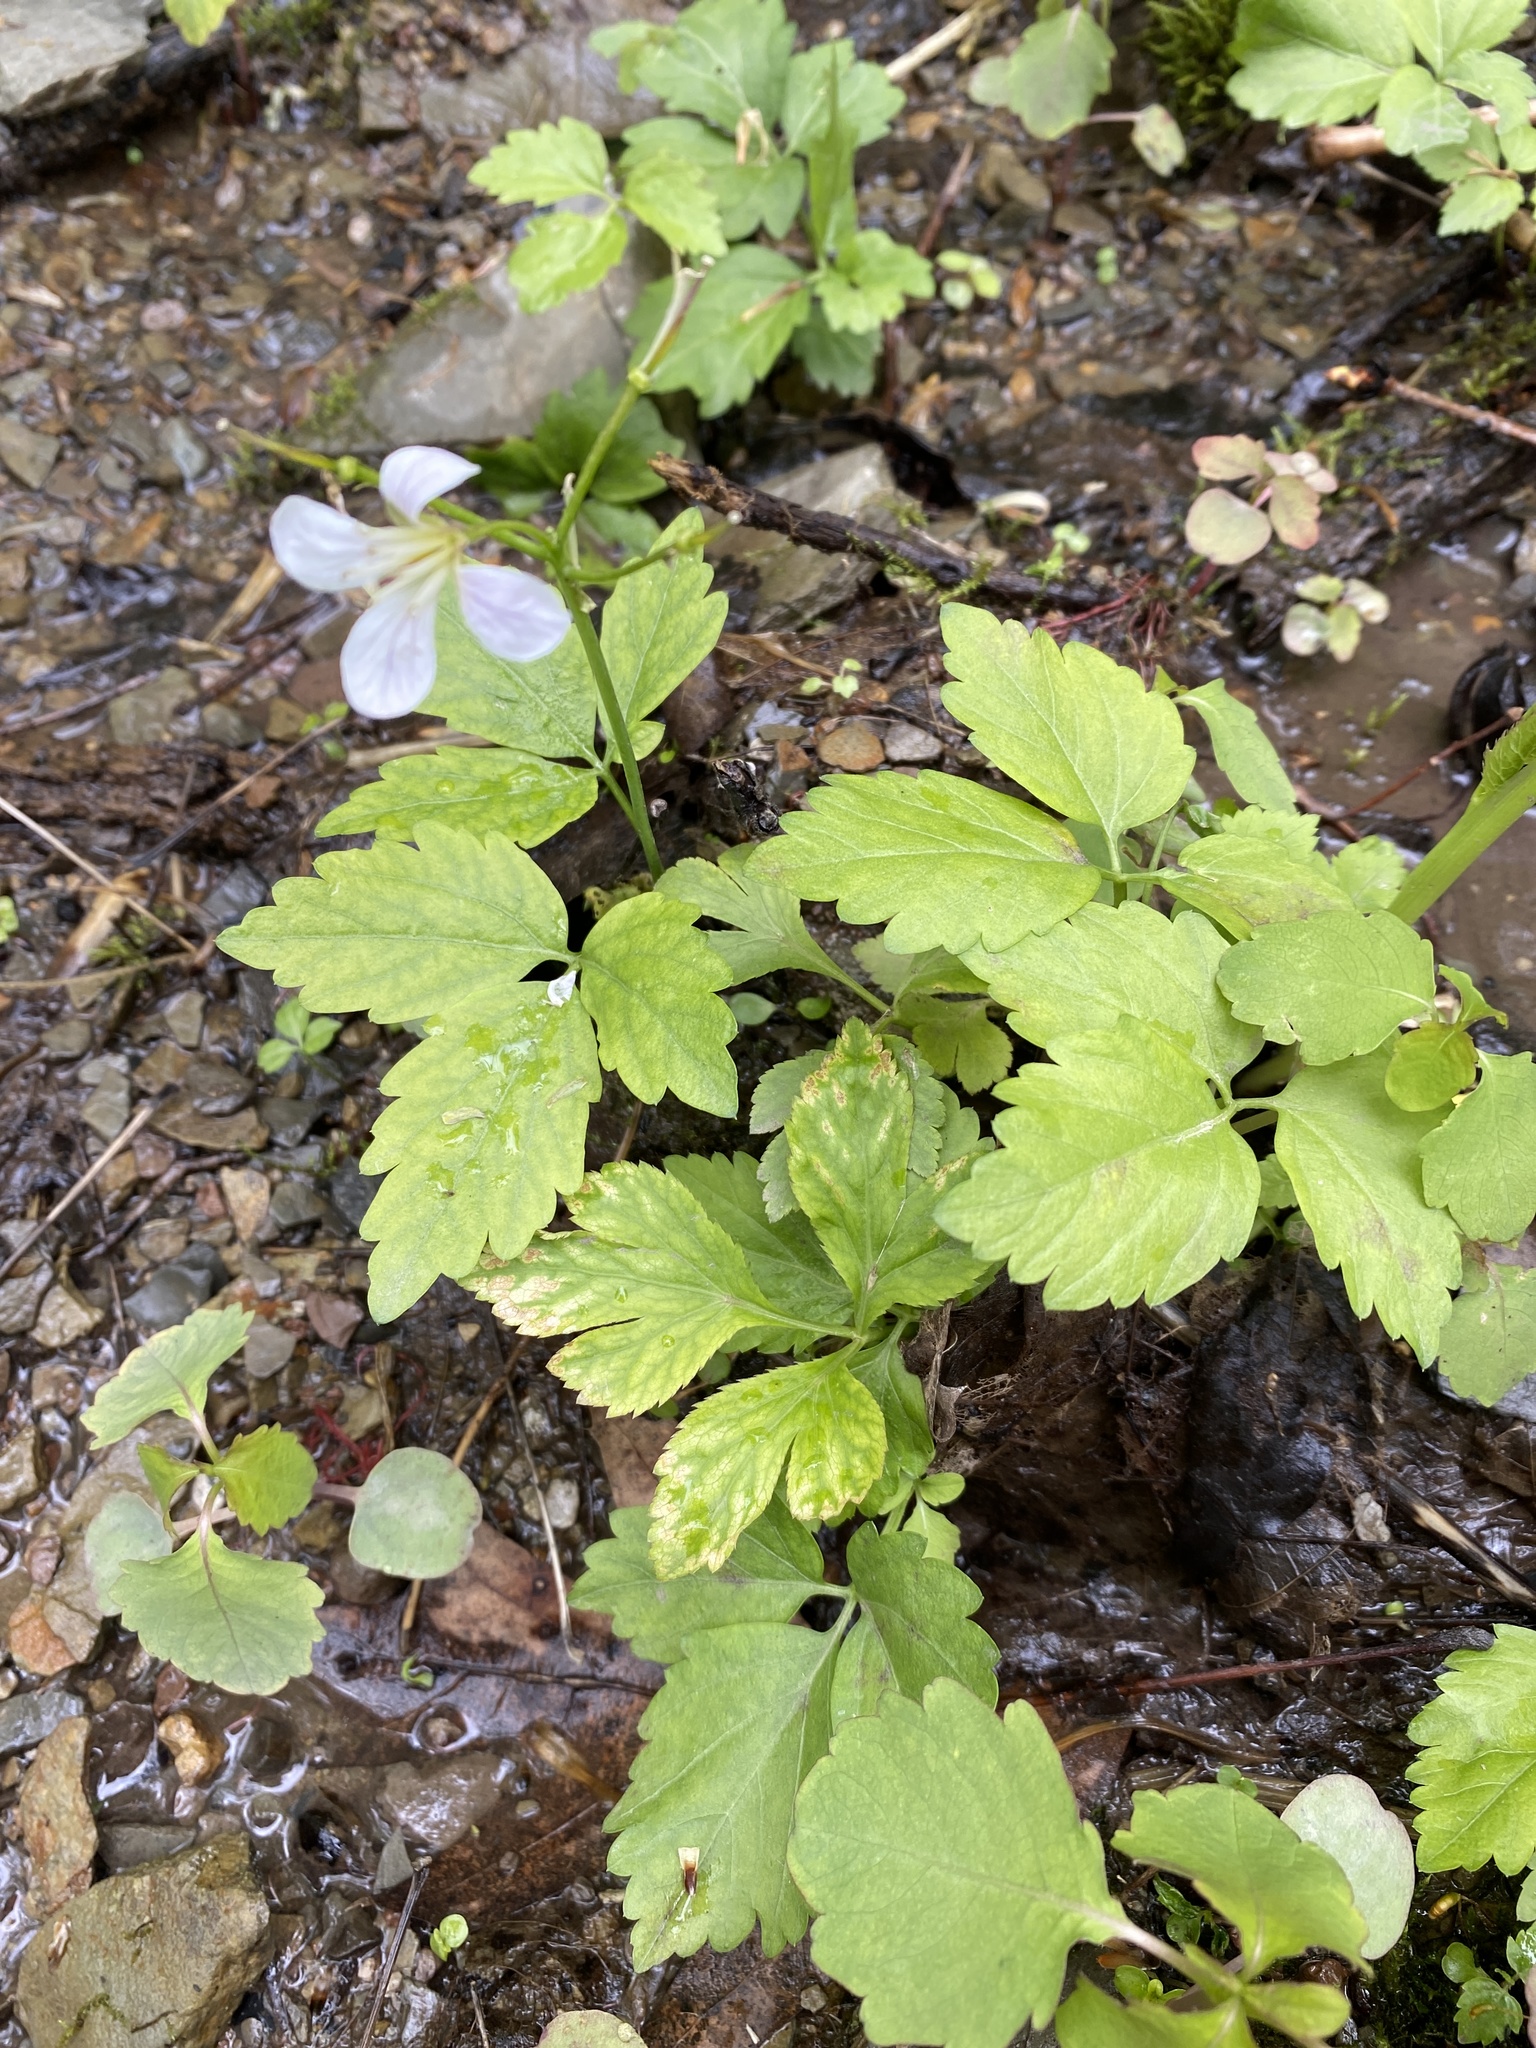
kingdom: Plantae
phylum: Tracheophyta
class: Magnoliopsida
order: Brassicales
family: Brassicaceae
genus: Cardamine
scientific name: Cardamine diphylla
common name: Broad-leaved toothwort
